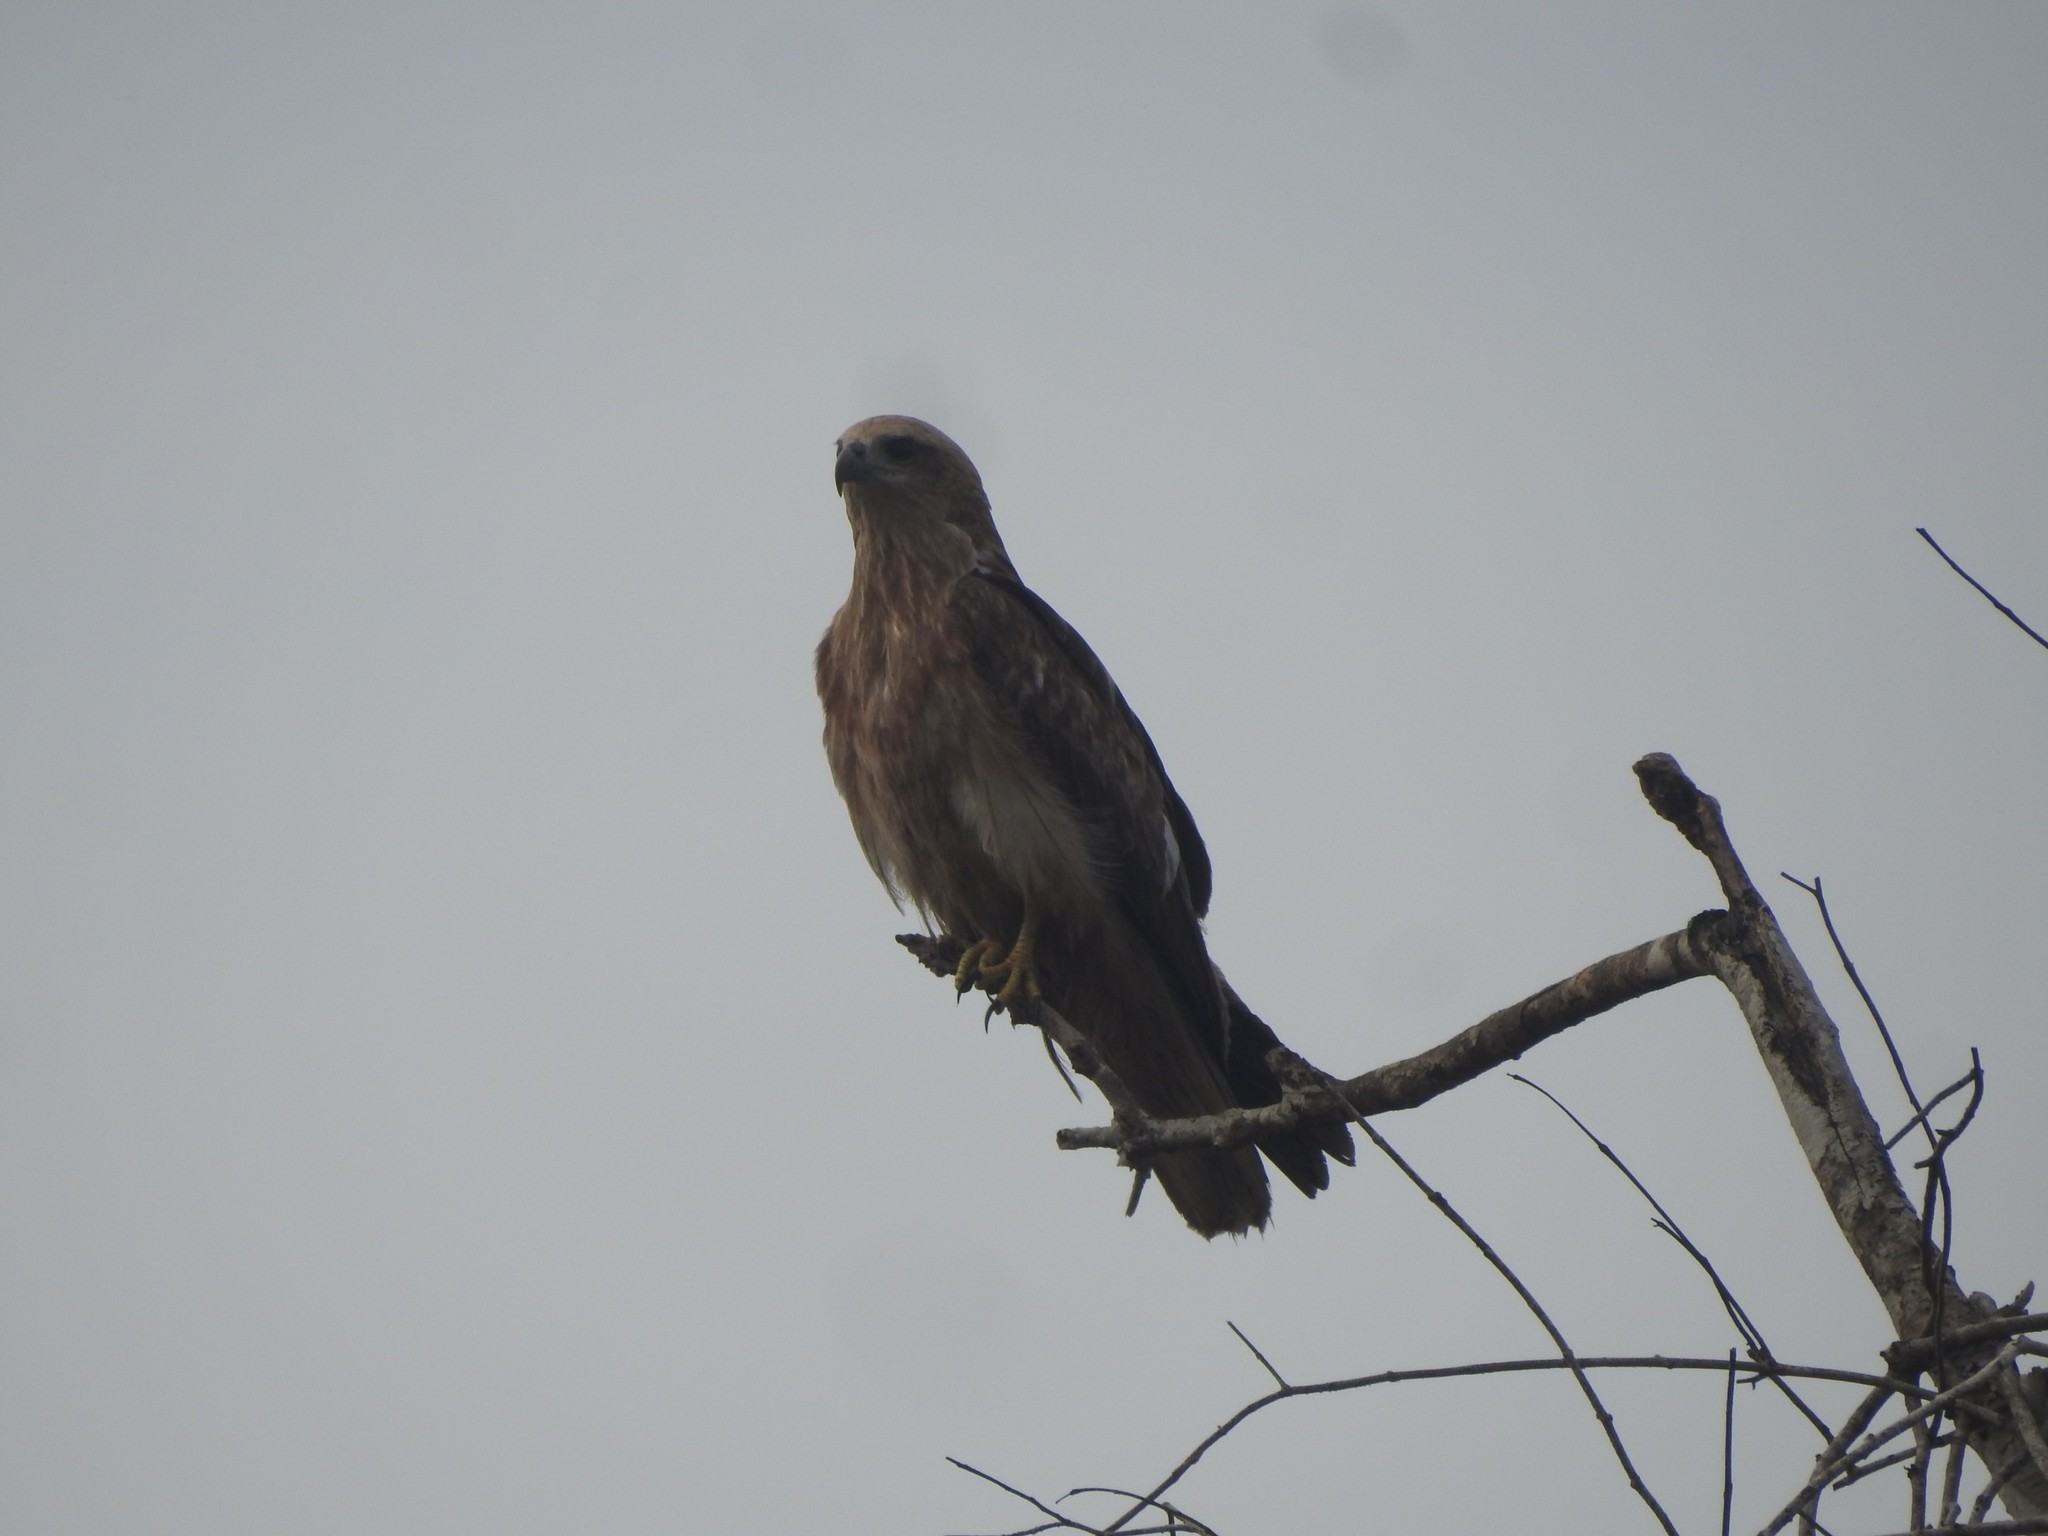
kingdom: Animalia
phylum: Chordata
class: Aves
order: Accipitriformes
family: Accipitridae
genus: Haliastur
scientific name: Haliastur indus
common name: Brahminy kite
